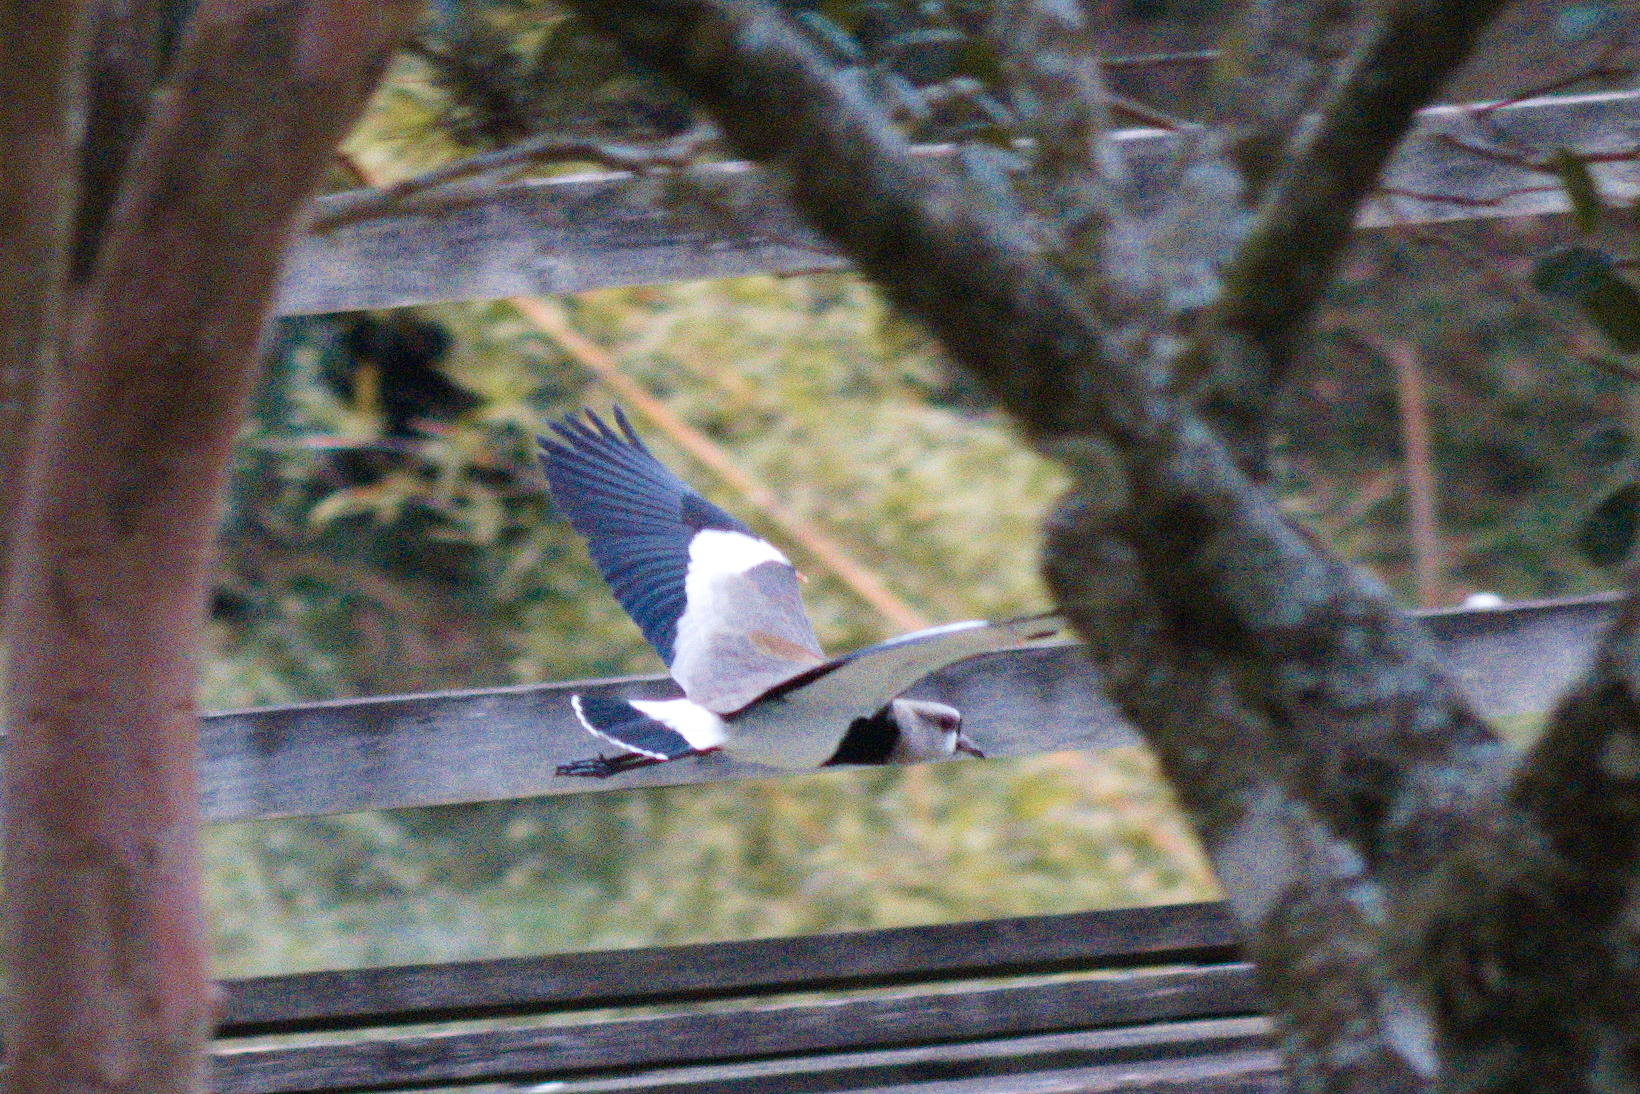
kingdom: Animalia
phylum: Chordata
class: Aves
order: Charadriiformes
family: Charadriidae
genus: Vanellus
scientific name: Vanellus chilensis
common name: Southern lapwing
